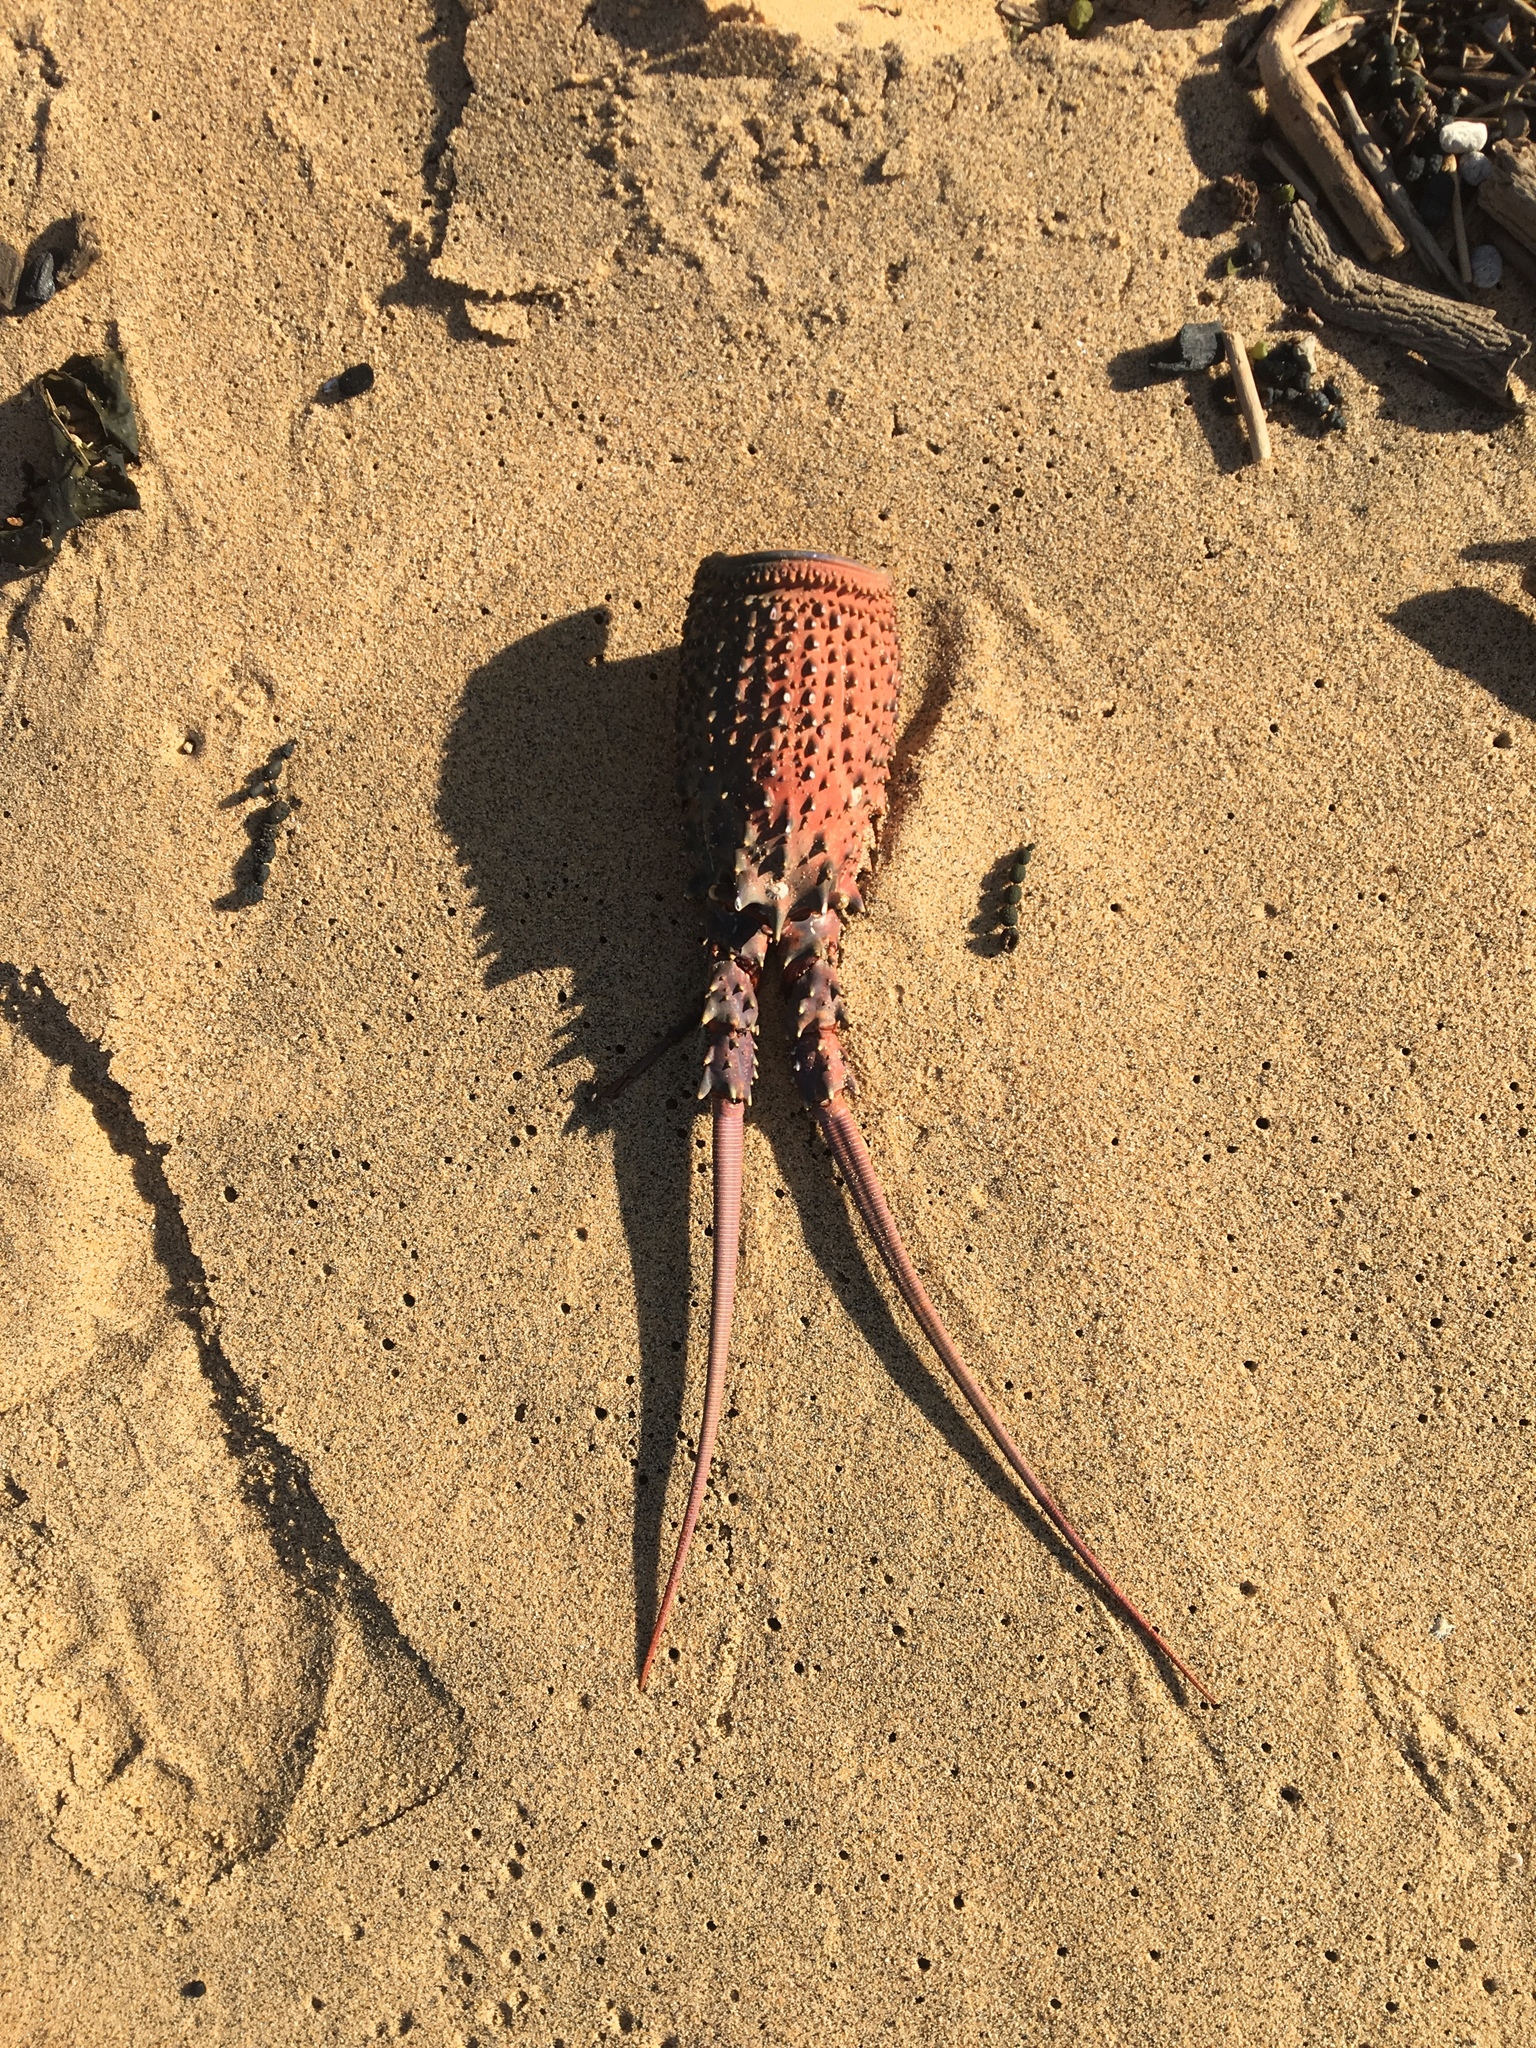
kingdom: Animalia
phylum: Arthropoda
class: Malacostraca
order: Decapoda
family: Palinuridae
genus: Sagmariasus
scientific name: Sagmariasus verreauxi
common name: Green rock lobster
